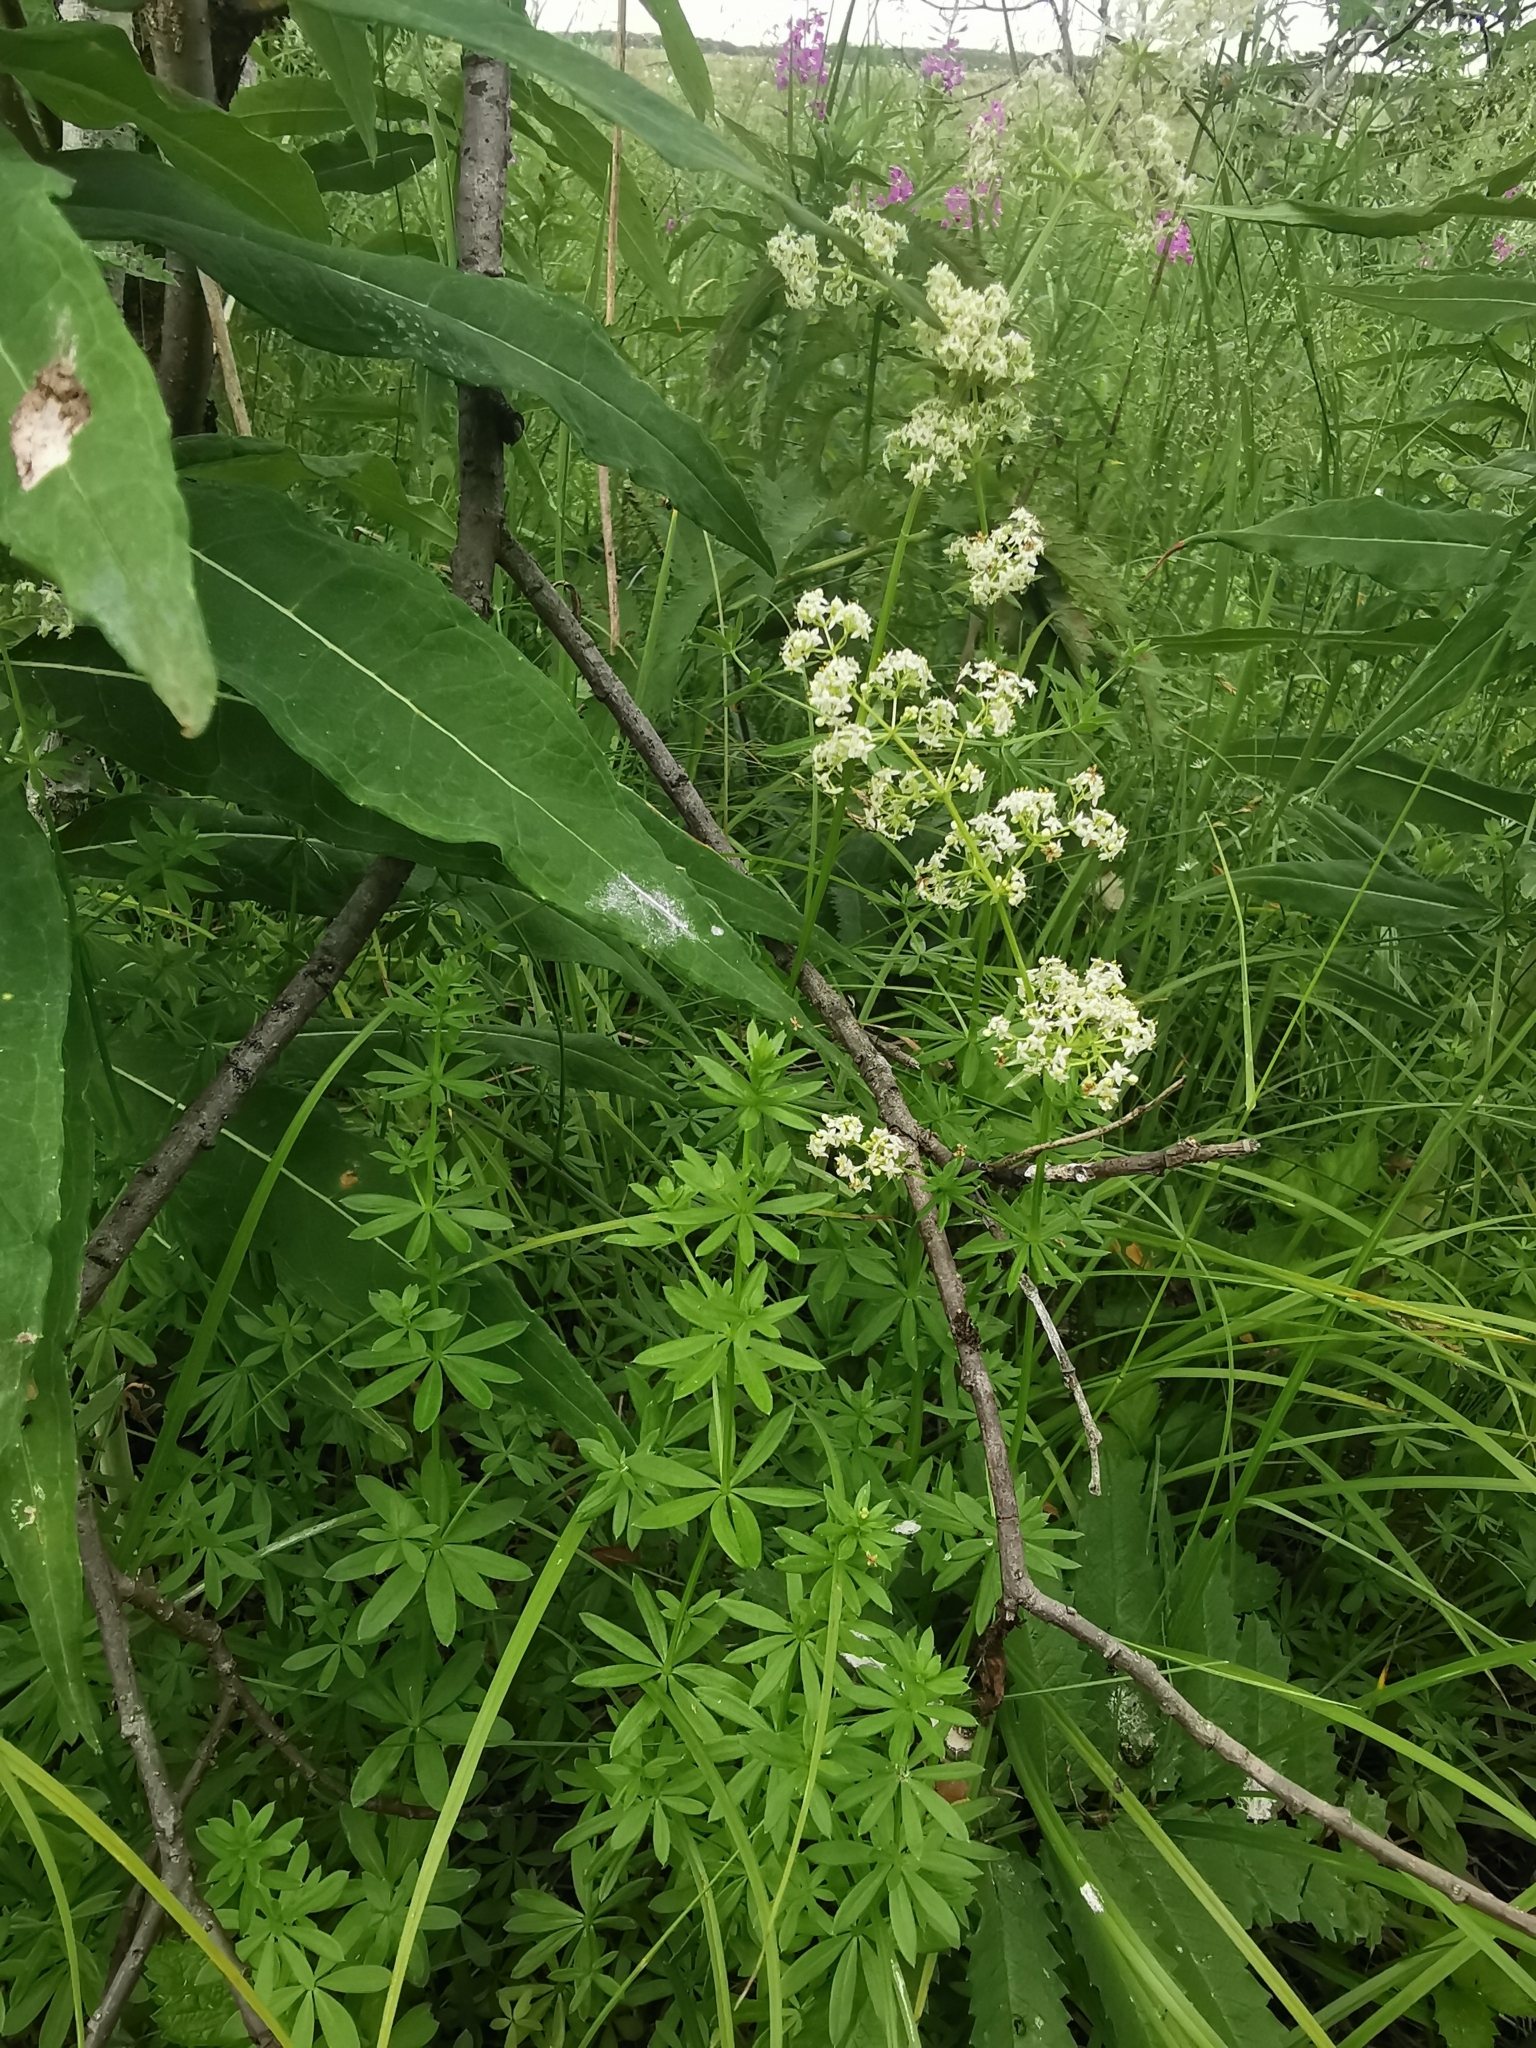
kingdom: Plantae
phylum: Tracheophyta
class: Magnoliopsida
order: Gentianales
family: Rubiaceae
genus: Galium
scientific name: Galium mollugo
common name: Hedge bedstraw
